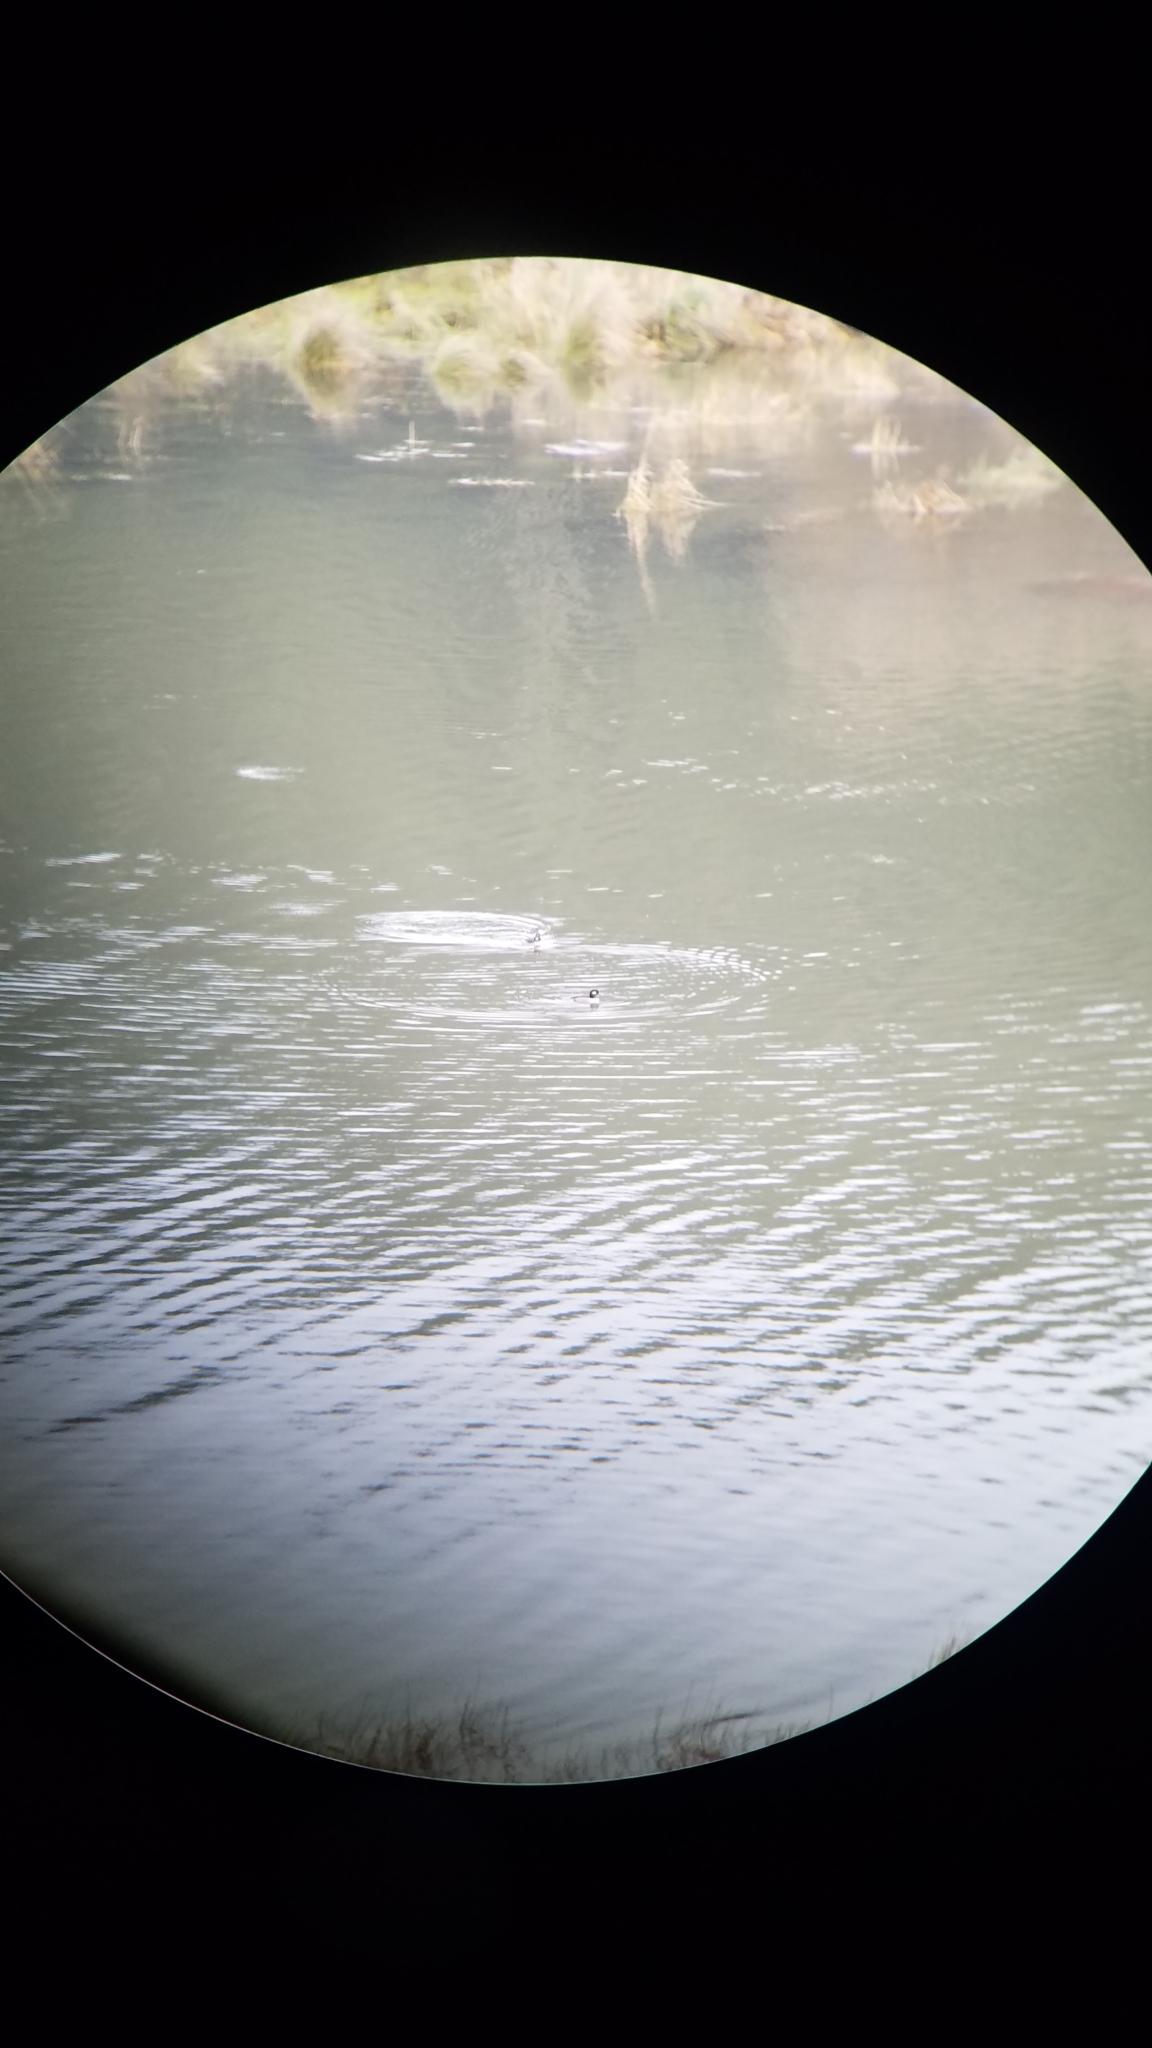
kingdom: Animalia
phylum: Chordata
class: Aves
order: Anseriformes
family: Anatidae
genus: Bucephala
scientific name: Bucephala albeola
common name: Bufflehead
